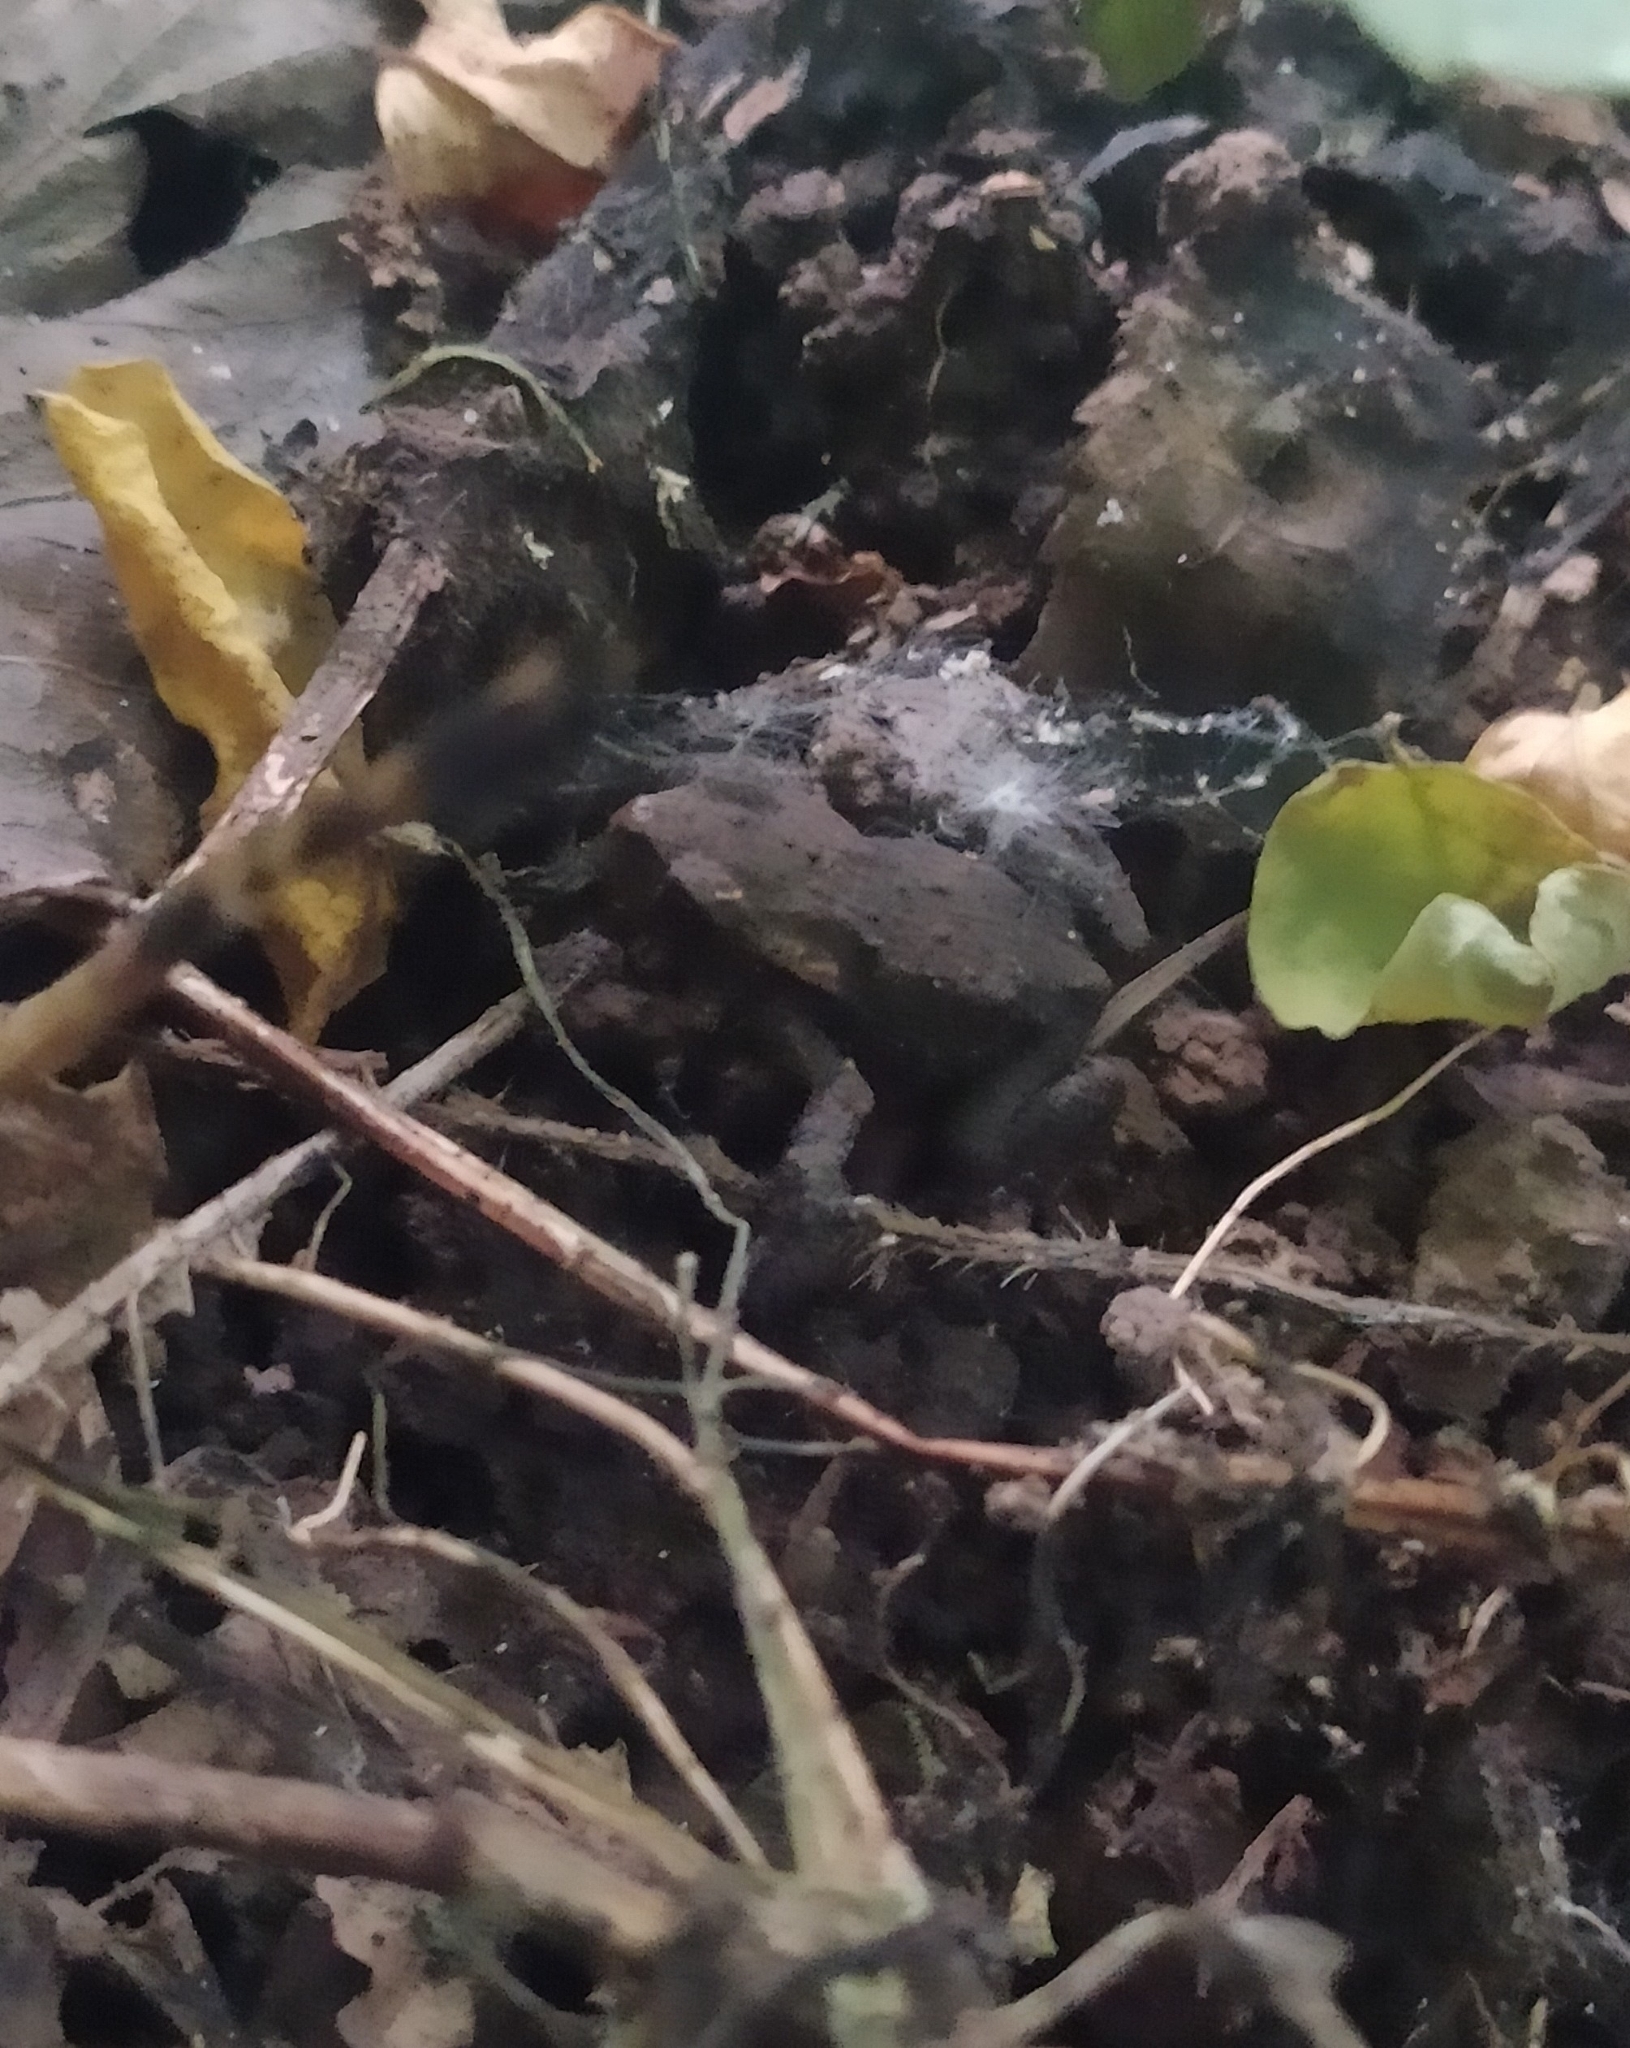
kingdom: Animalia
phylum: Chordata
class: Amphibia
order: Anura
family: Bufonidae
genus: Bufo
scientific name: Bufo bufo
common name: Common toad
